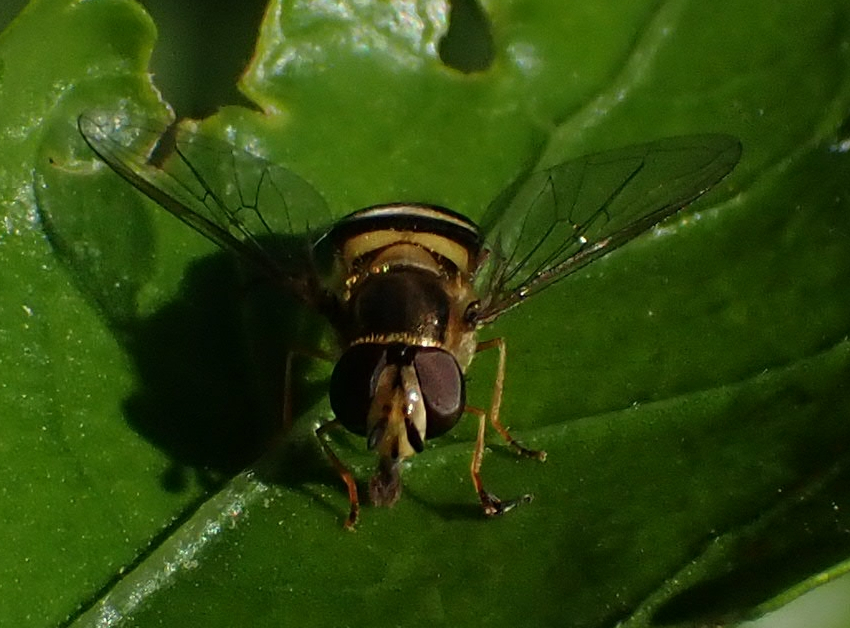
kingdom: Animalia
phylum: Arthropoda
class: Insecta
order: Diptera
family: Syrphidae
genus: Eupeodes
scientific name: Eupeodes
